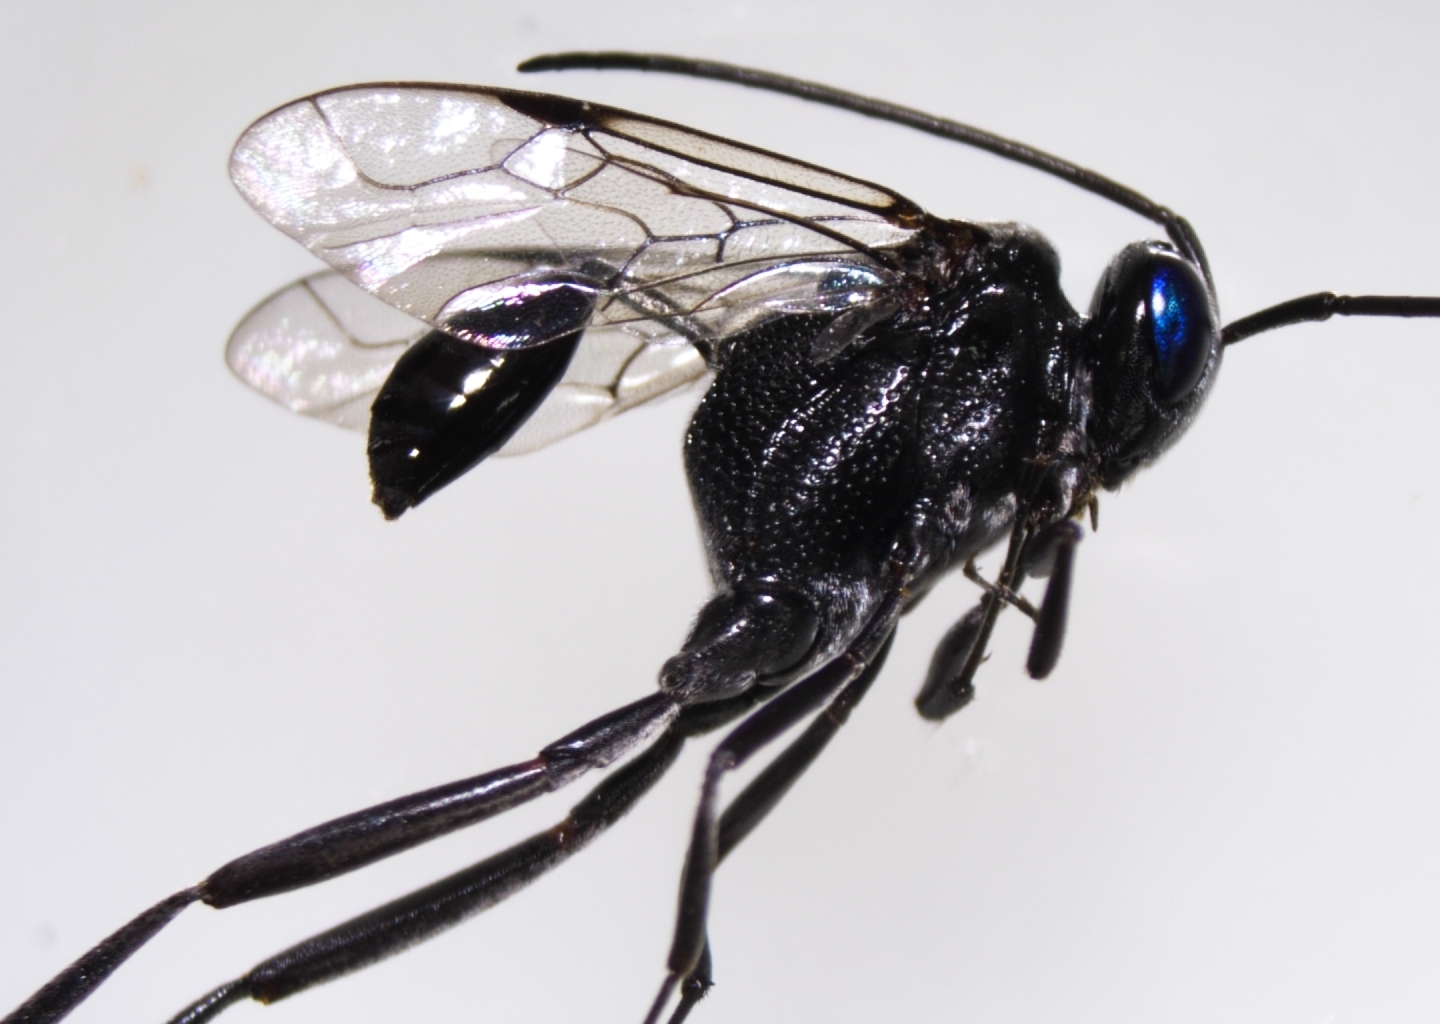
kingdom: Animalia
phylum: Arthropoda
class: Insecta
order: Hymenoptera
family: Evaniidae
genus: Evania
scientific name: Evania appendigaster
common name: Ensign wasp
